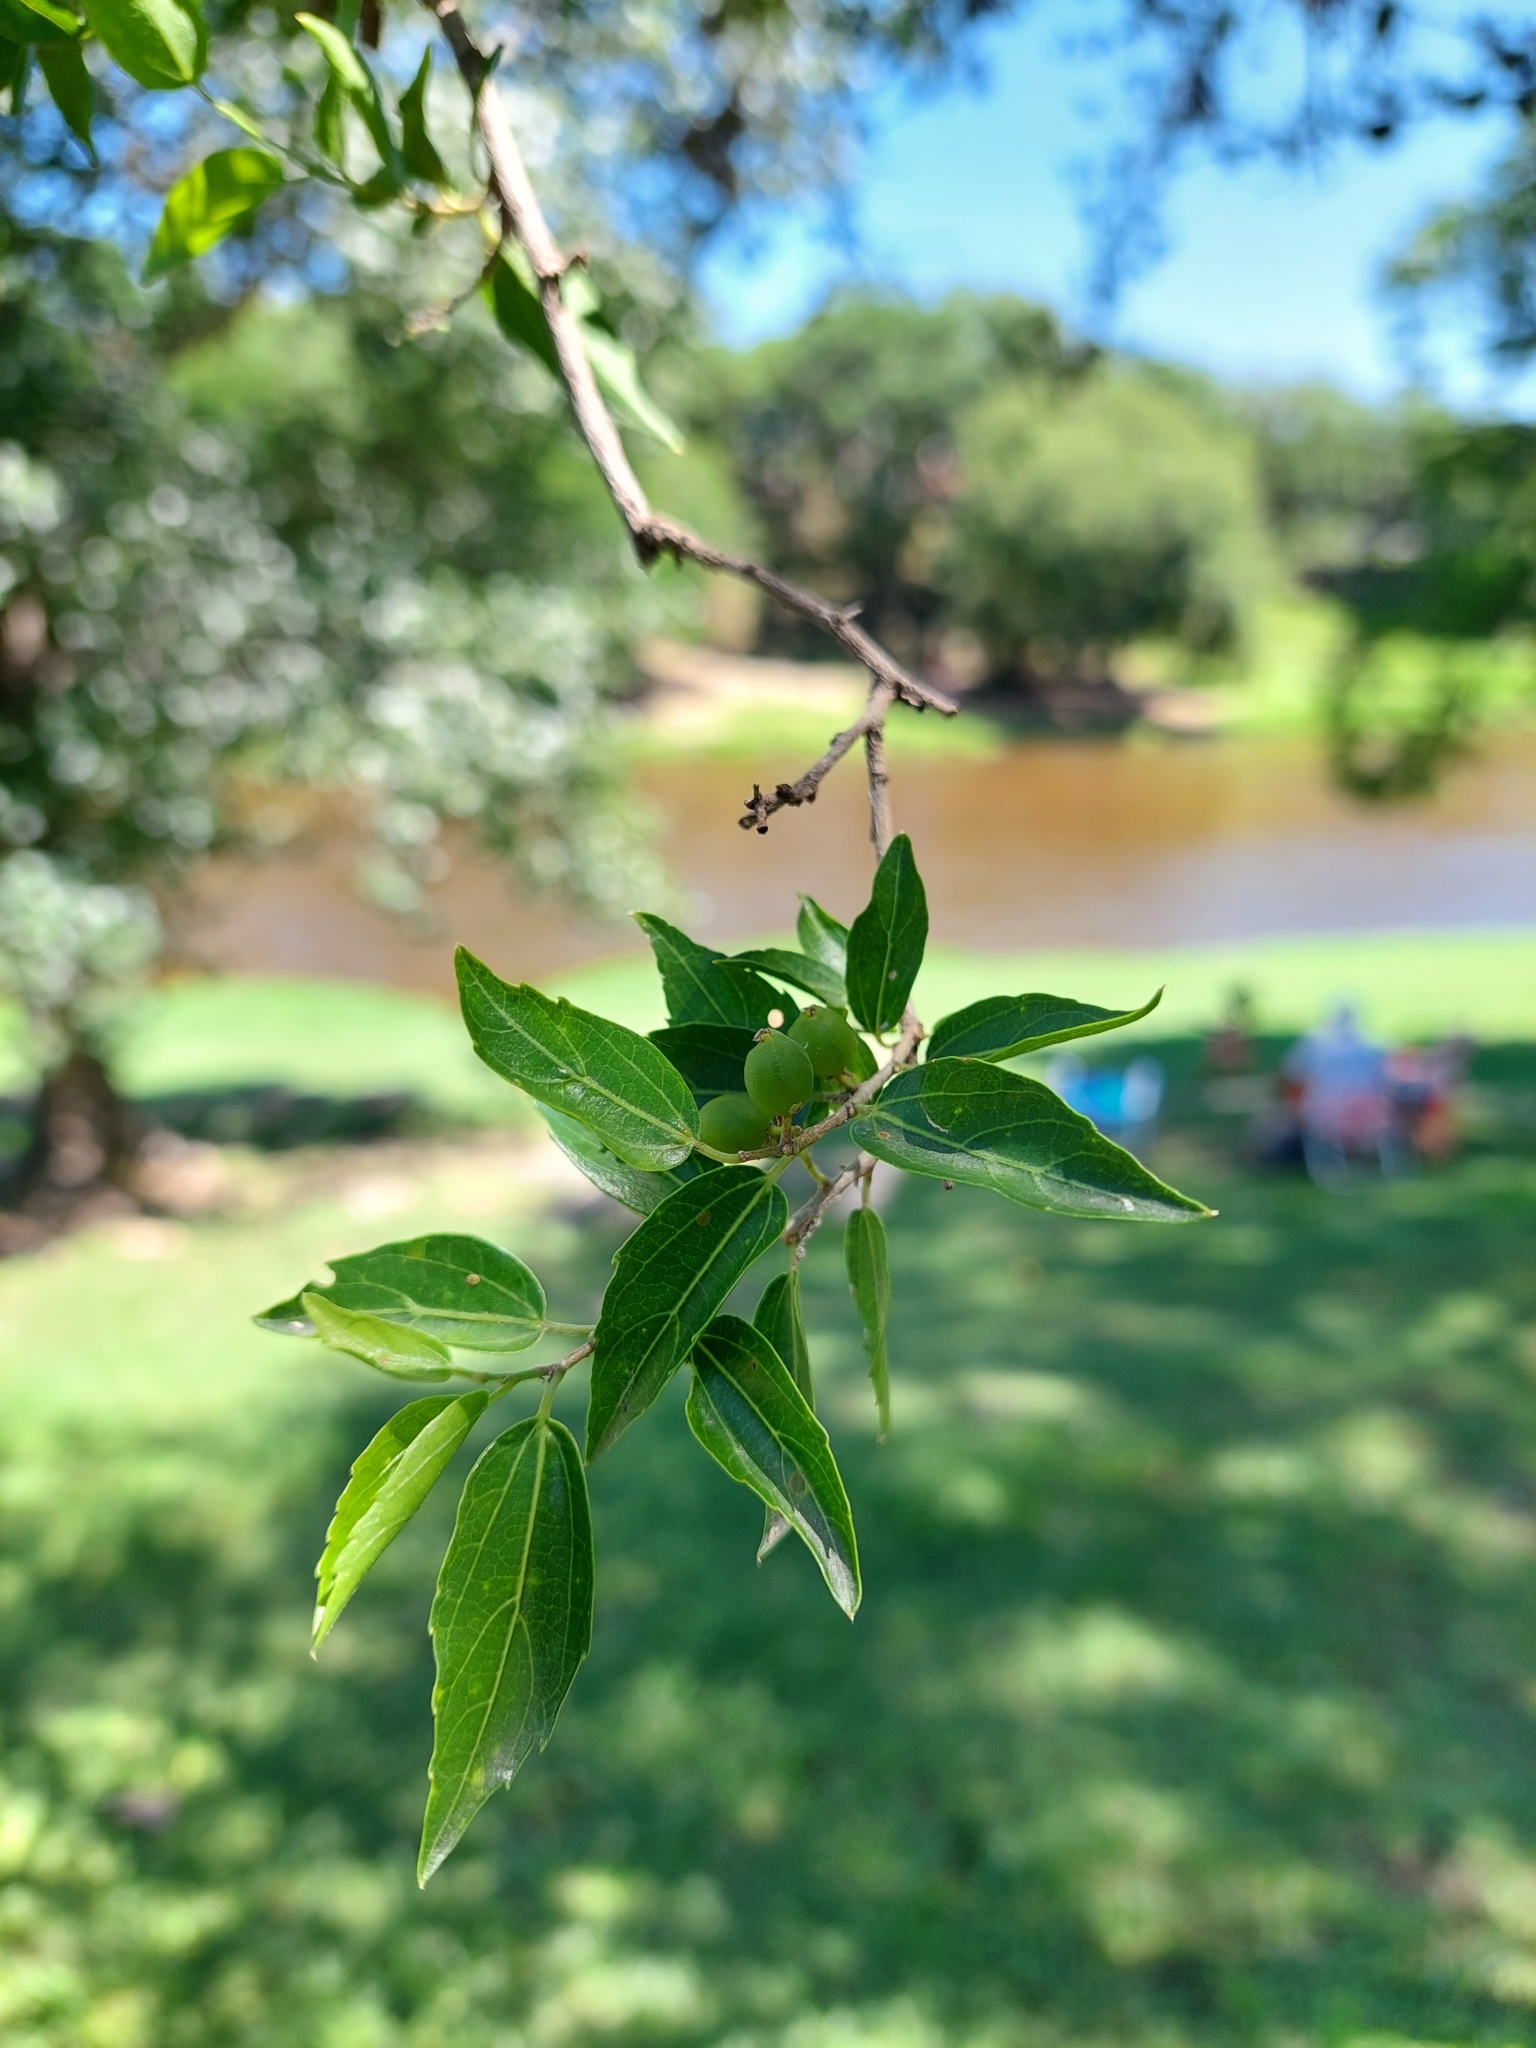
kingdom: Plantae
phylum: Tracheophyta
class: Magnoliopsida
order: Rosales
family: Cannabaceae
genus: Celtis
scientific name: Celtis tala
